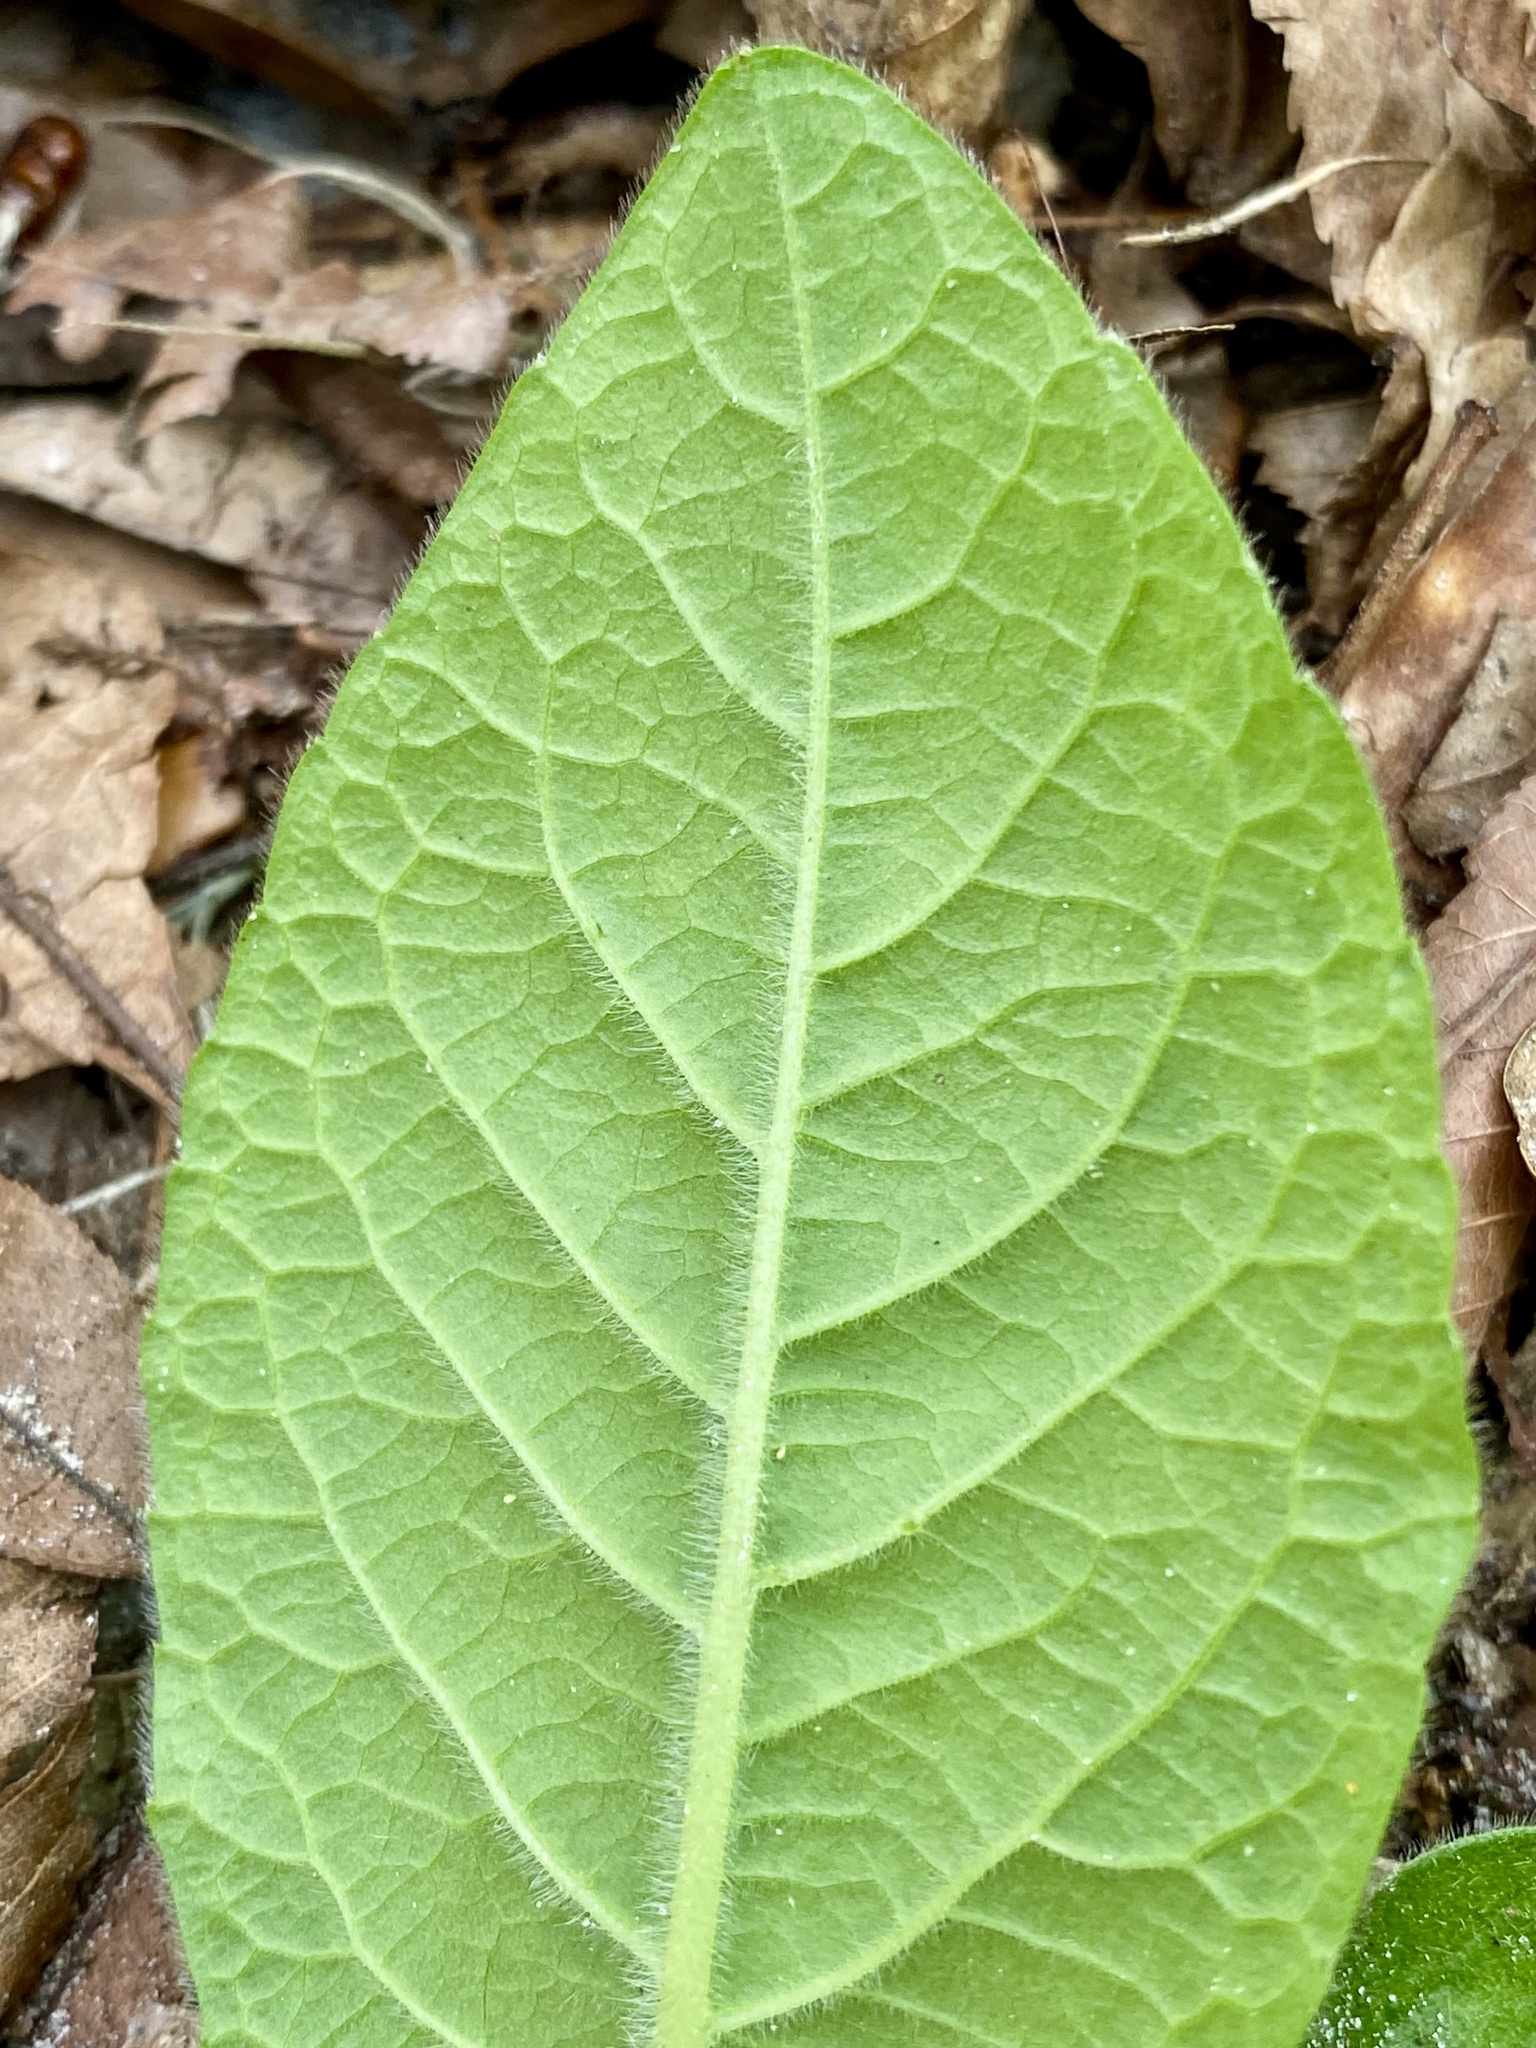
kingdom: Plantae
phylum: Tracheophyta
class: Magnoliopsida
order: Asterales
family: Asteraceae
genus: Elephantopus
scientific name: Elephantopus elatus
